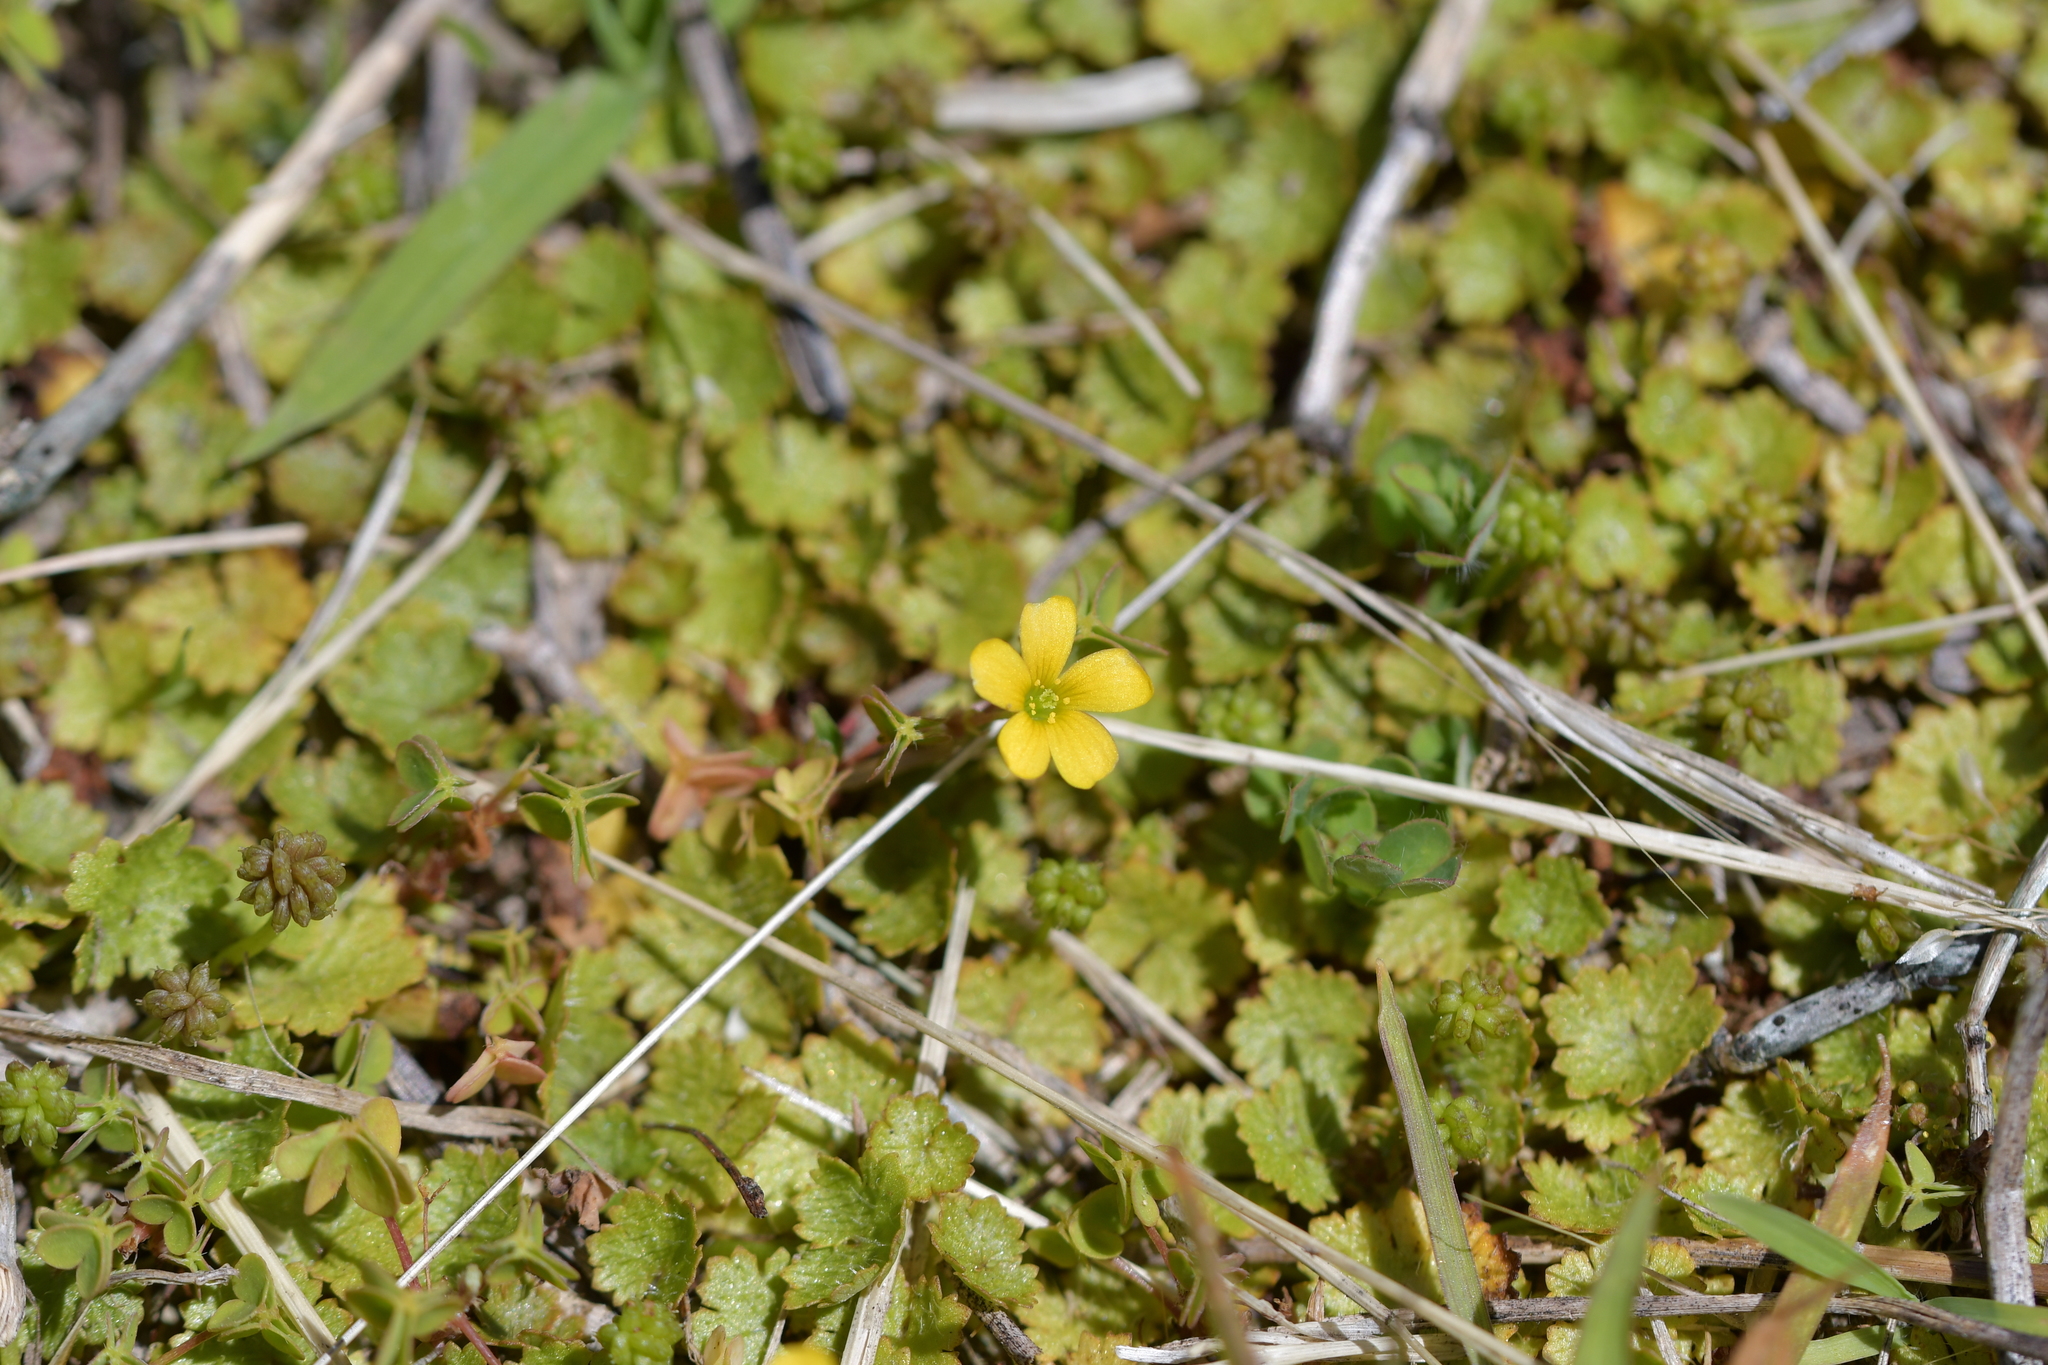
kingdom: Plantae
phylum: Tracheophyta
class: Magnoliopsida
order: Oxalidales
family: Oxalidaceae
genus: Oxalis
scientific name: Oxalis exilis
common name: Least yellow-sorrel
